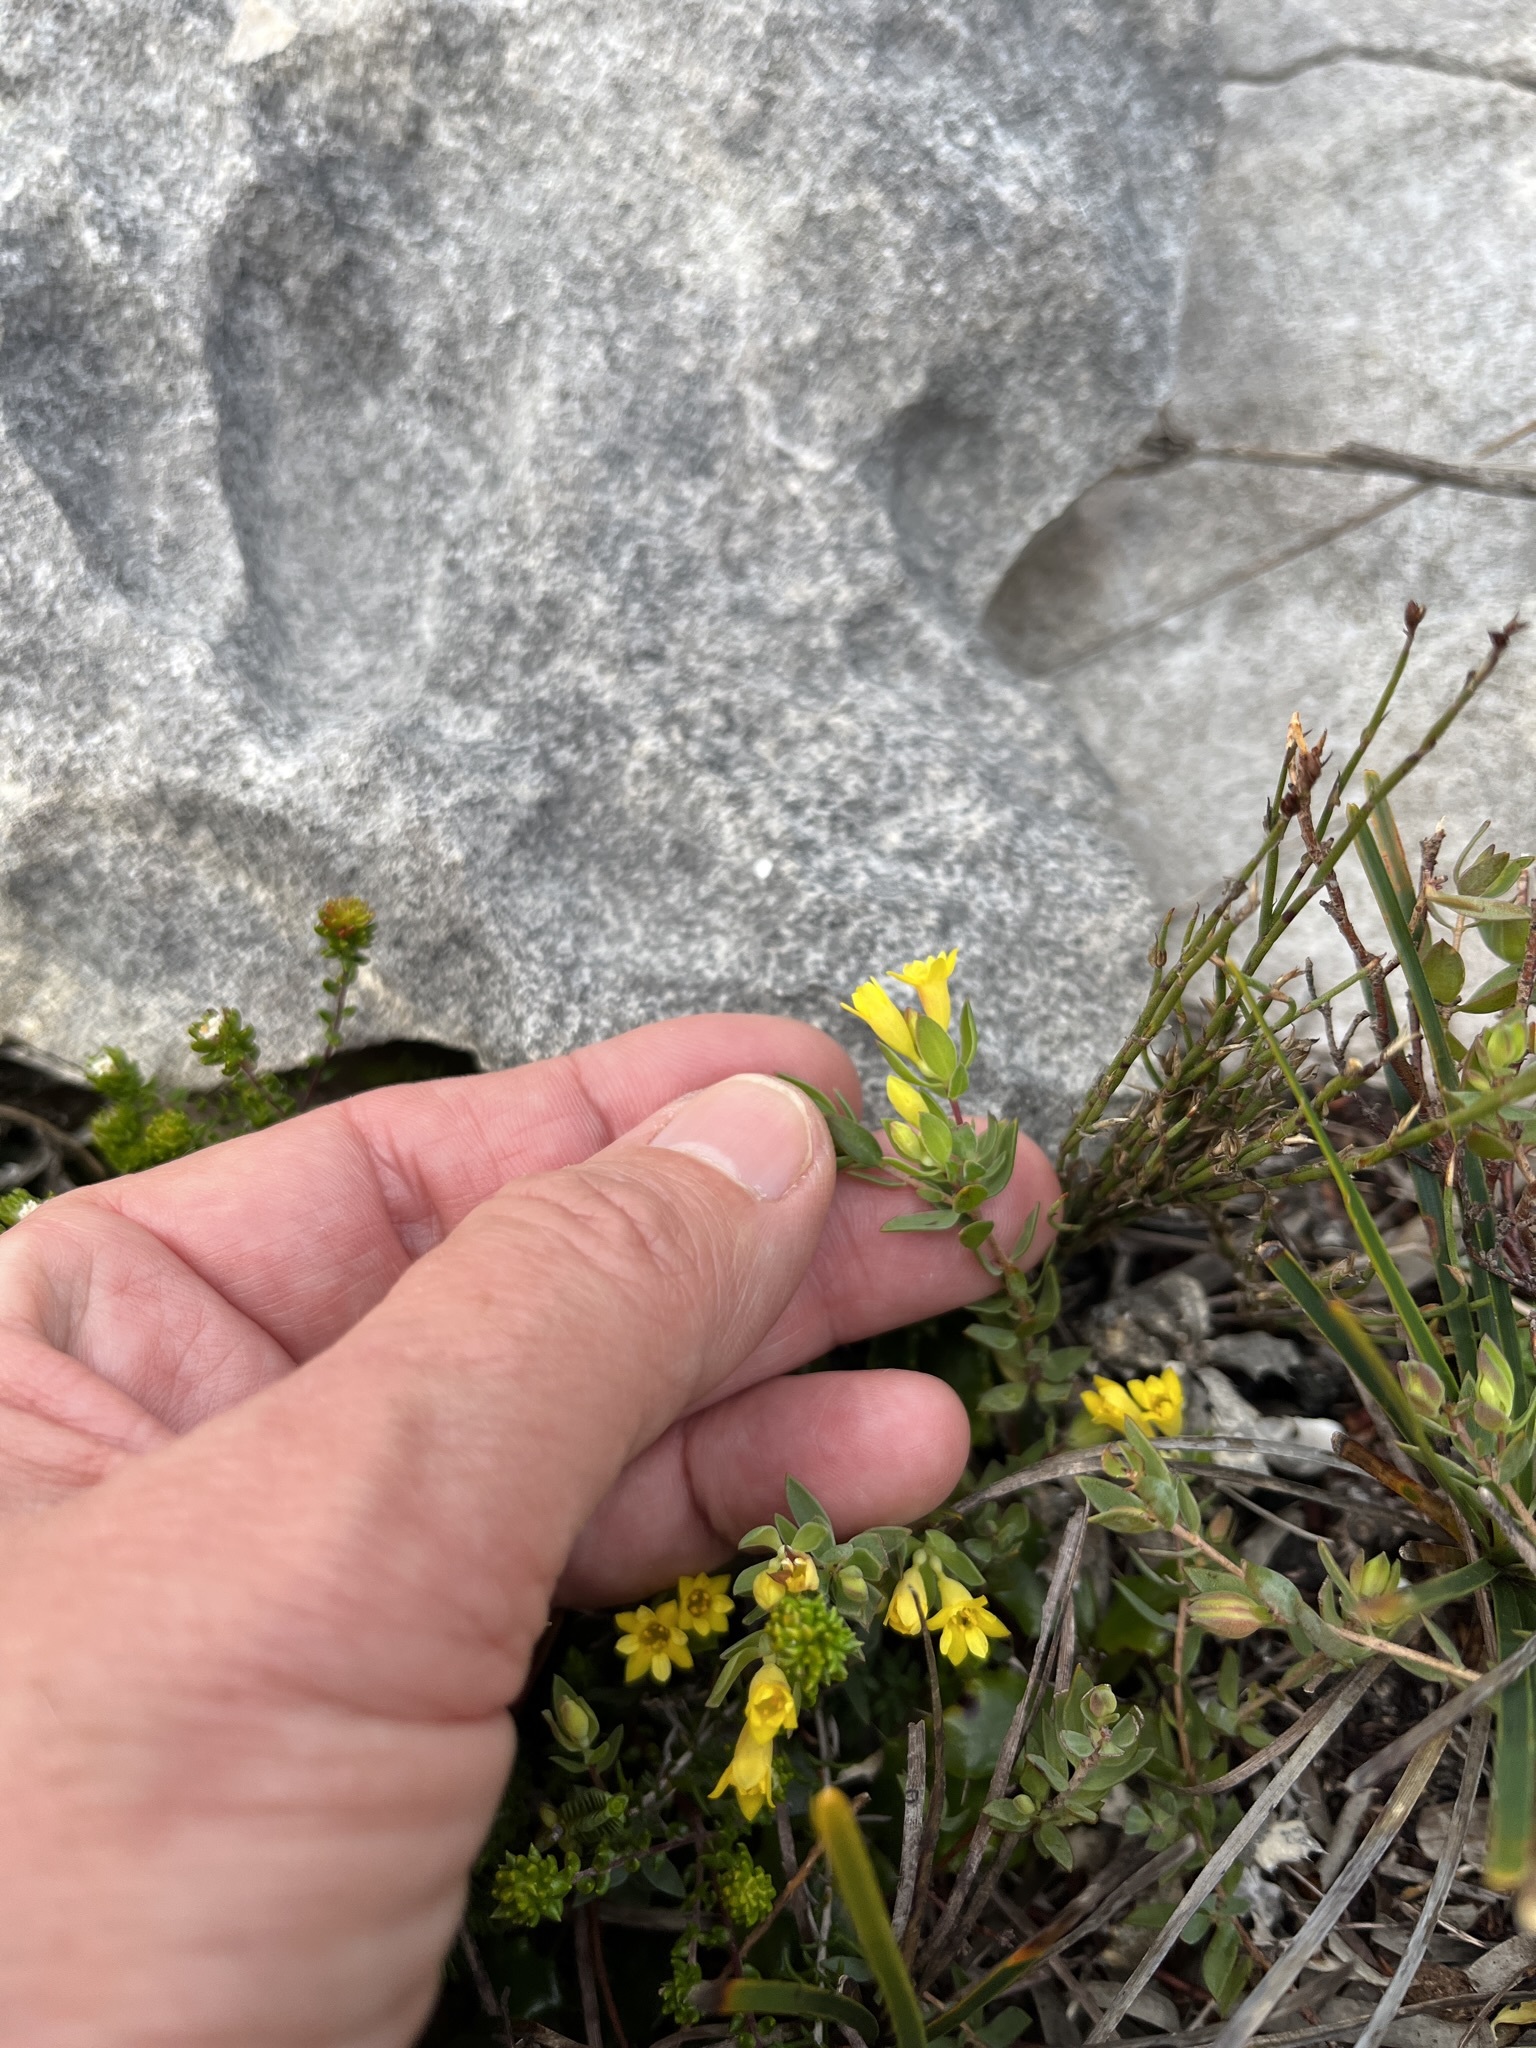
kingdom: Plantae
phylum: Tracheophyta
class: Magnoliopsida
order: Malvales
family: Thymelaeaceae
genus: Gnidia
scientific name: Gnidia juniperifolia
